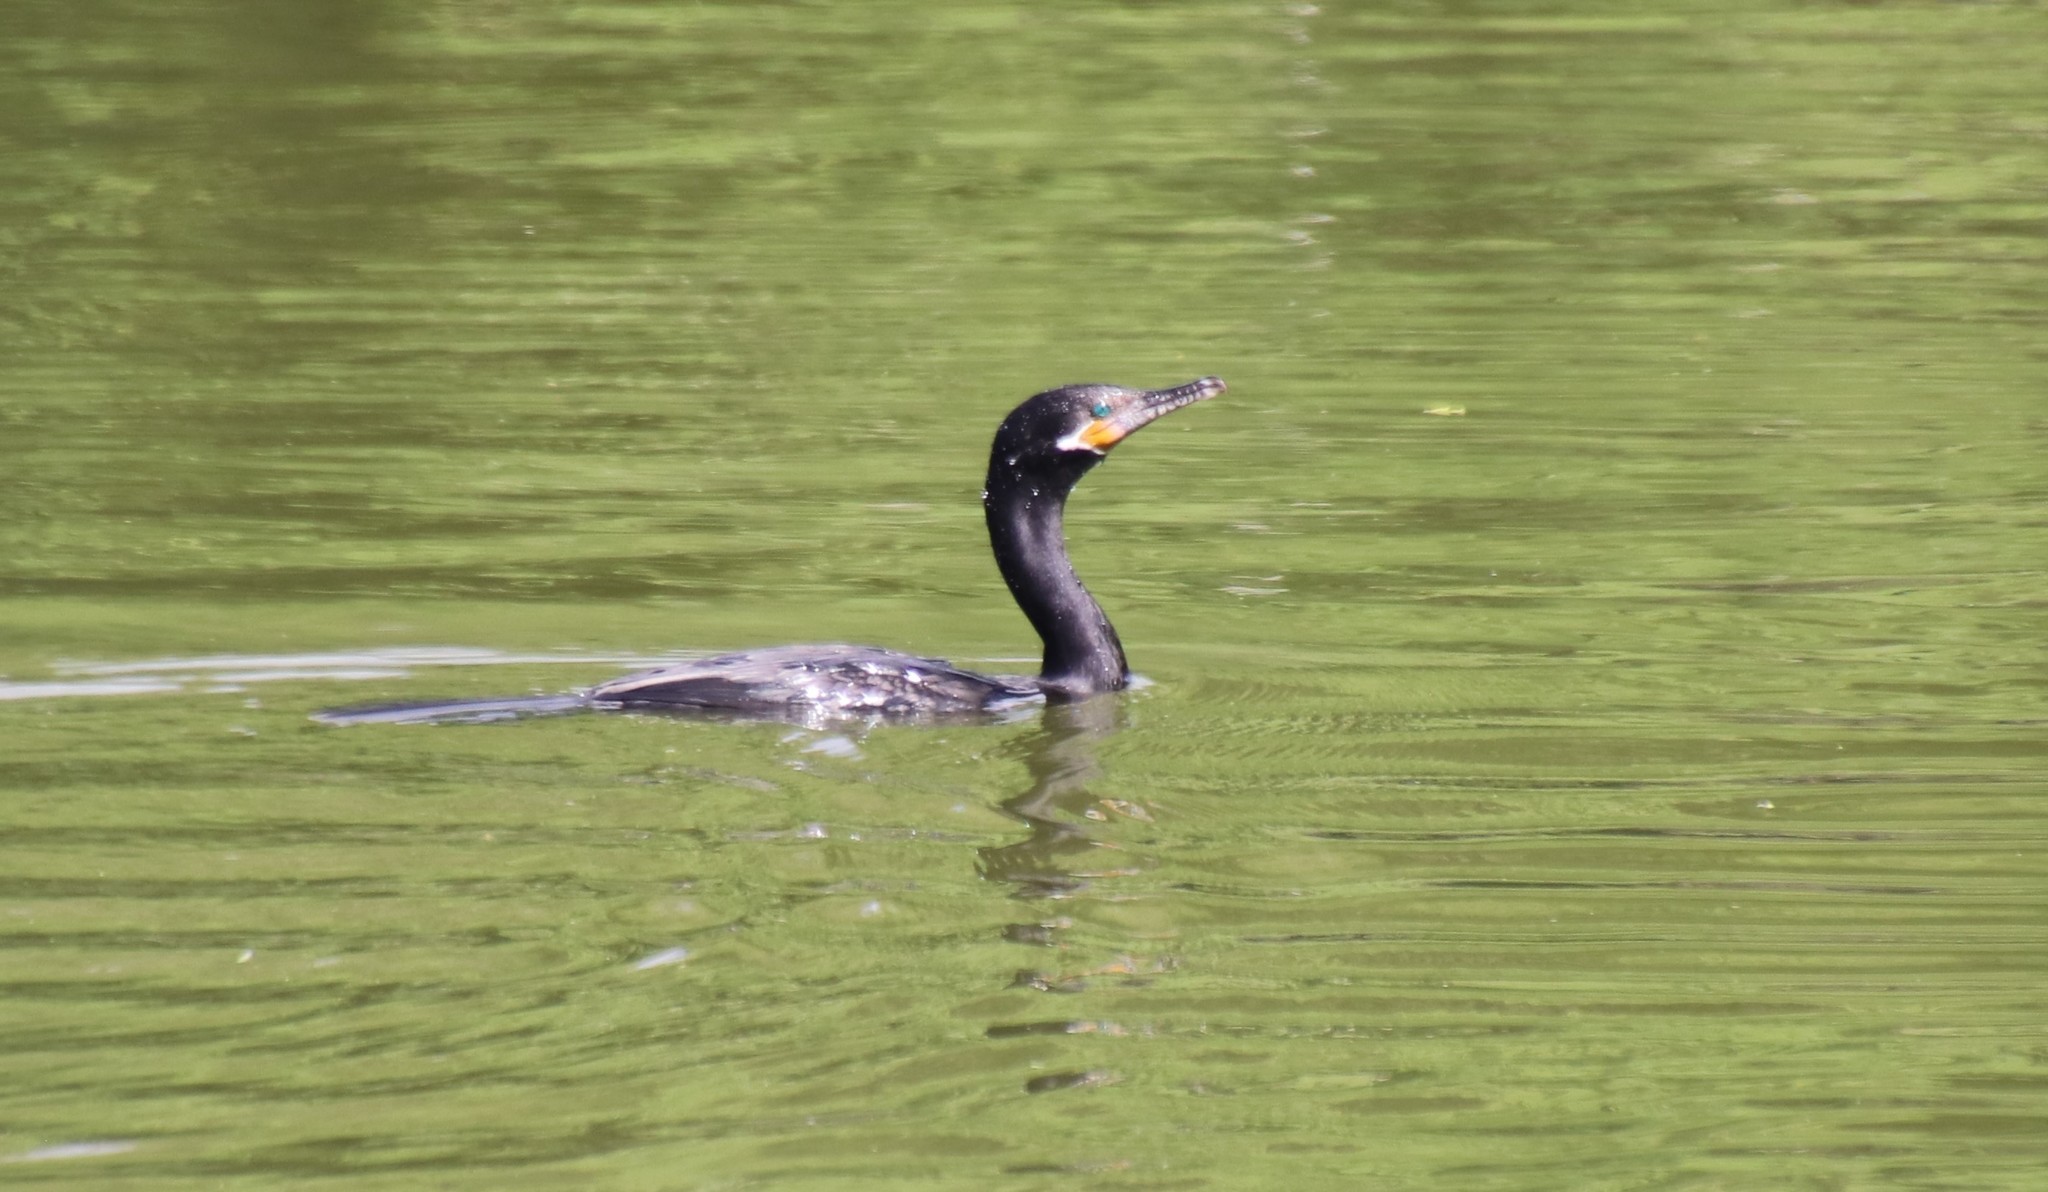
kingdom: Animalia
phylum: Chordata
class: Aves
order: Suliformes
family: Phalacrocoracidae
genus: Phalacrocorax
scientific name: Phalacrocorax brasilianus
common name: Neotropic cormorant
